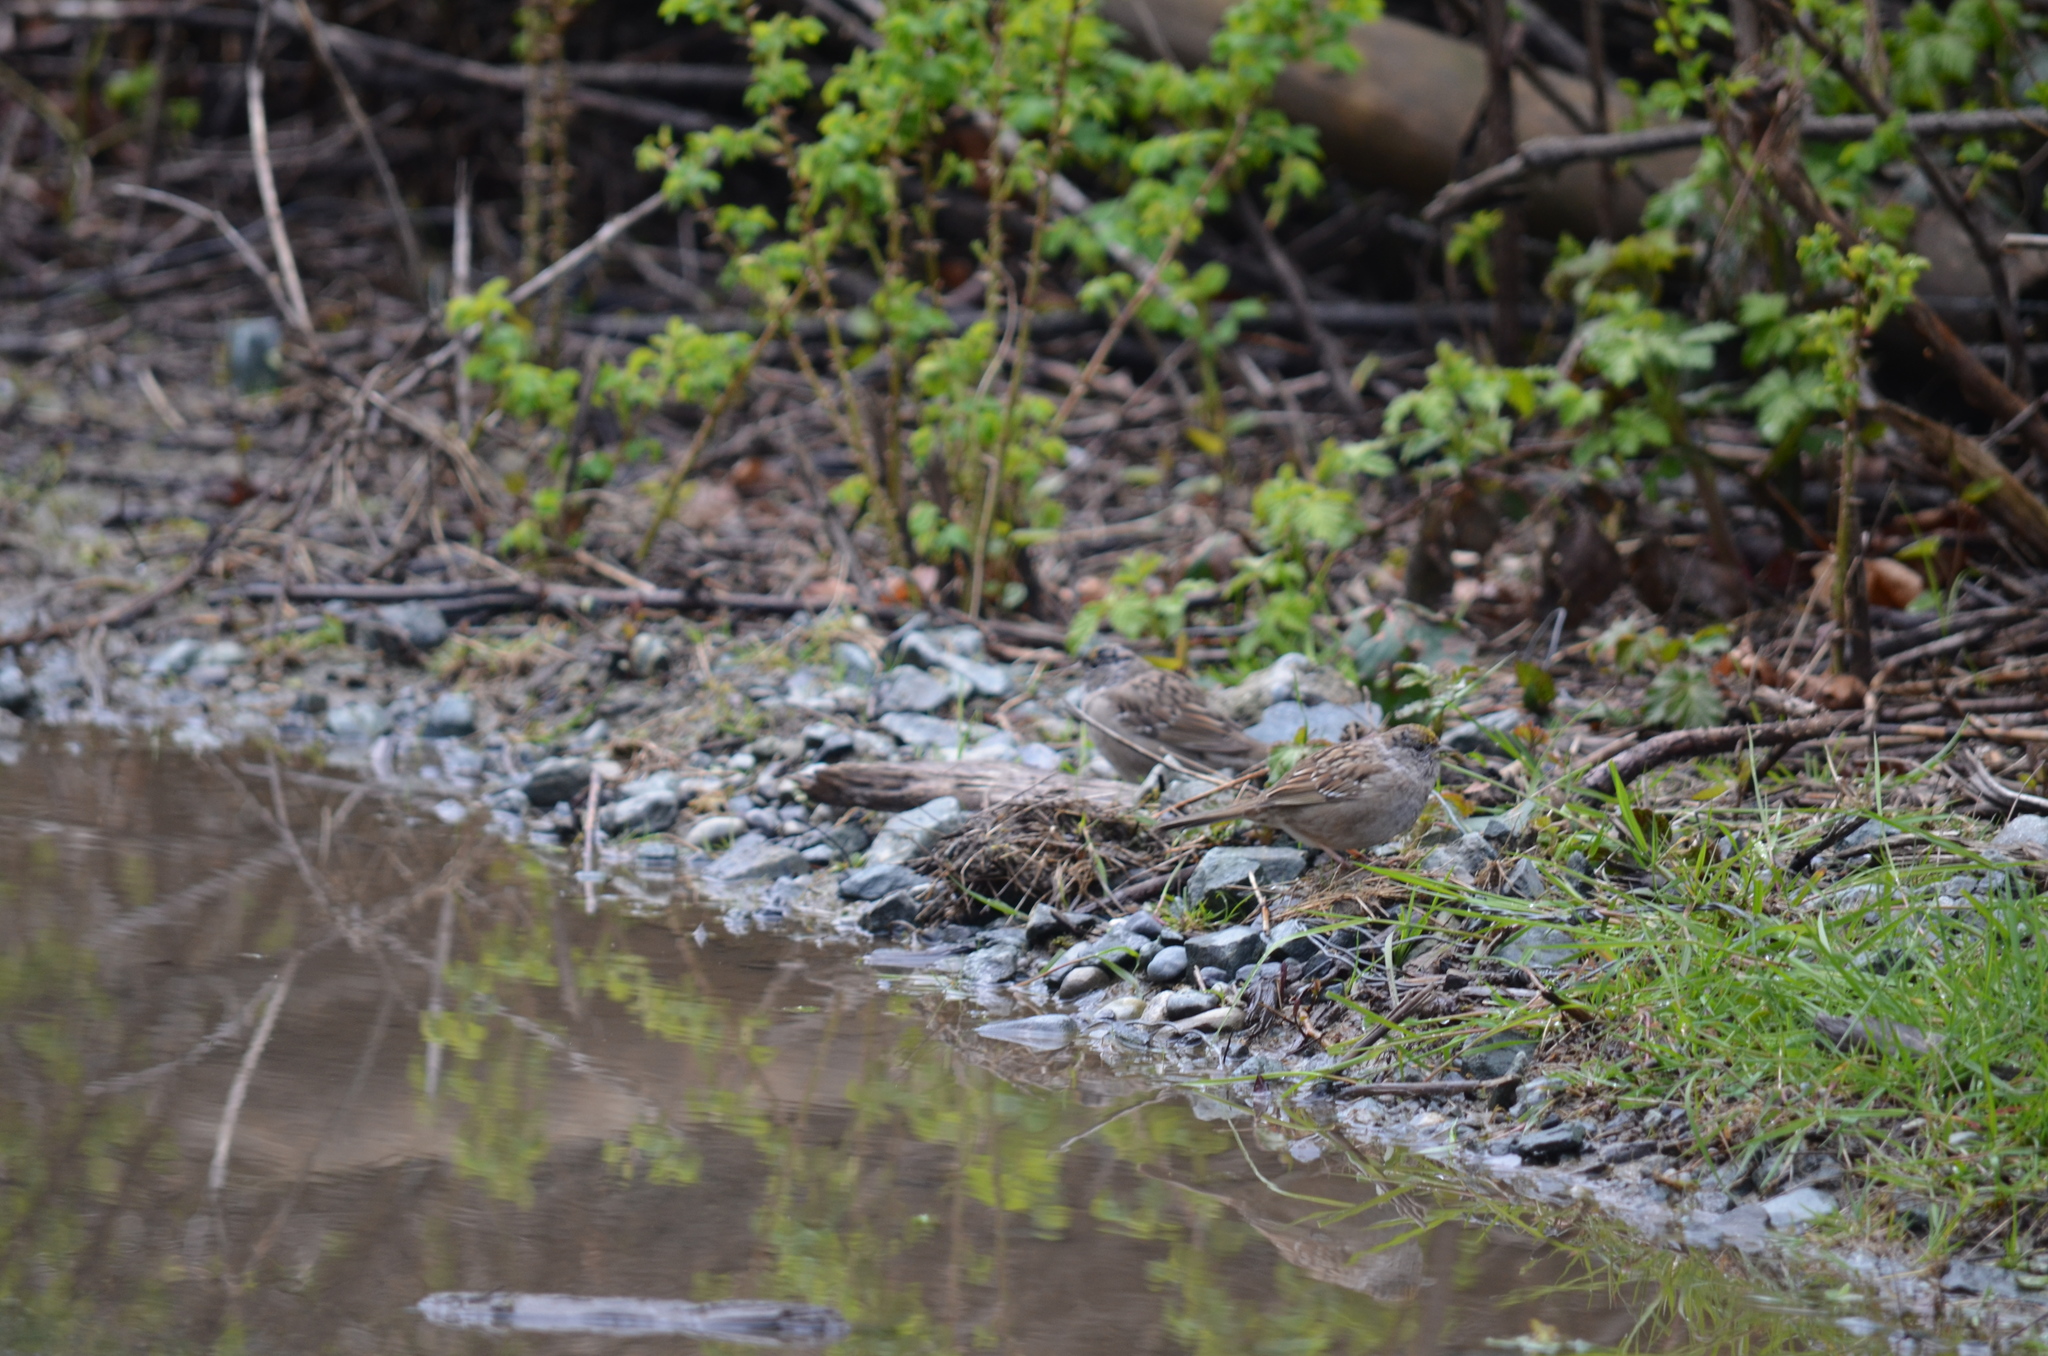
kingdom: Animalia
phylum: Chordata
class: Aves
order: Passeriformes
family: Passerellidae
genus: Zonotrichia
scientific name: Zonotrichia atricapilla
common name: Golden-crowned sparrow
